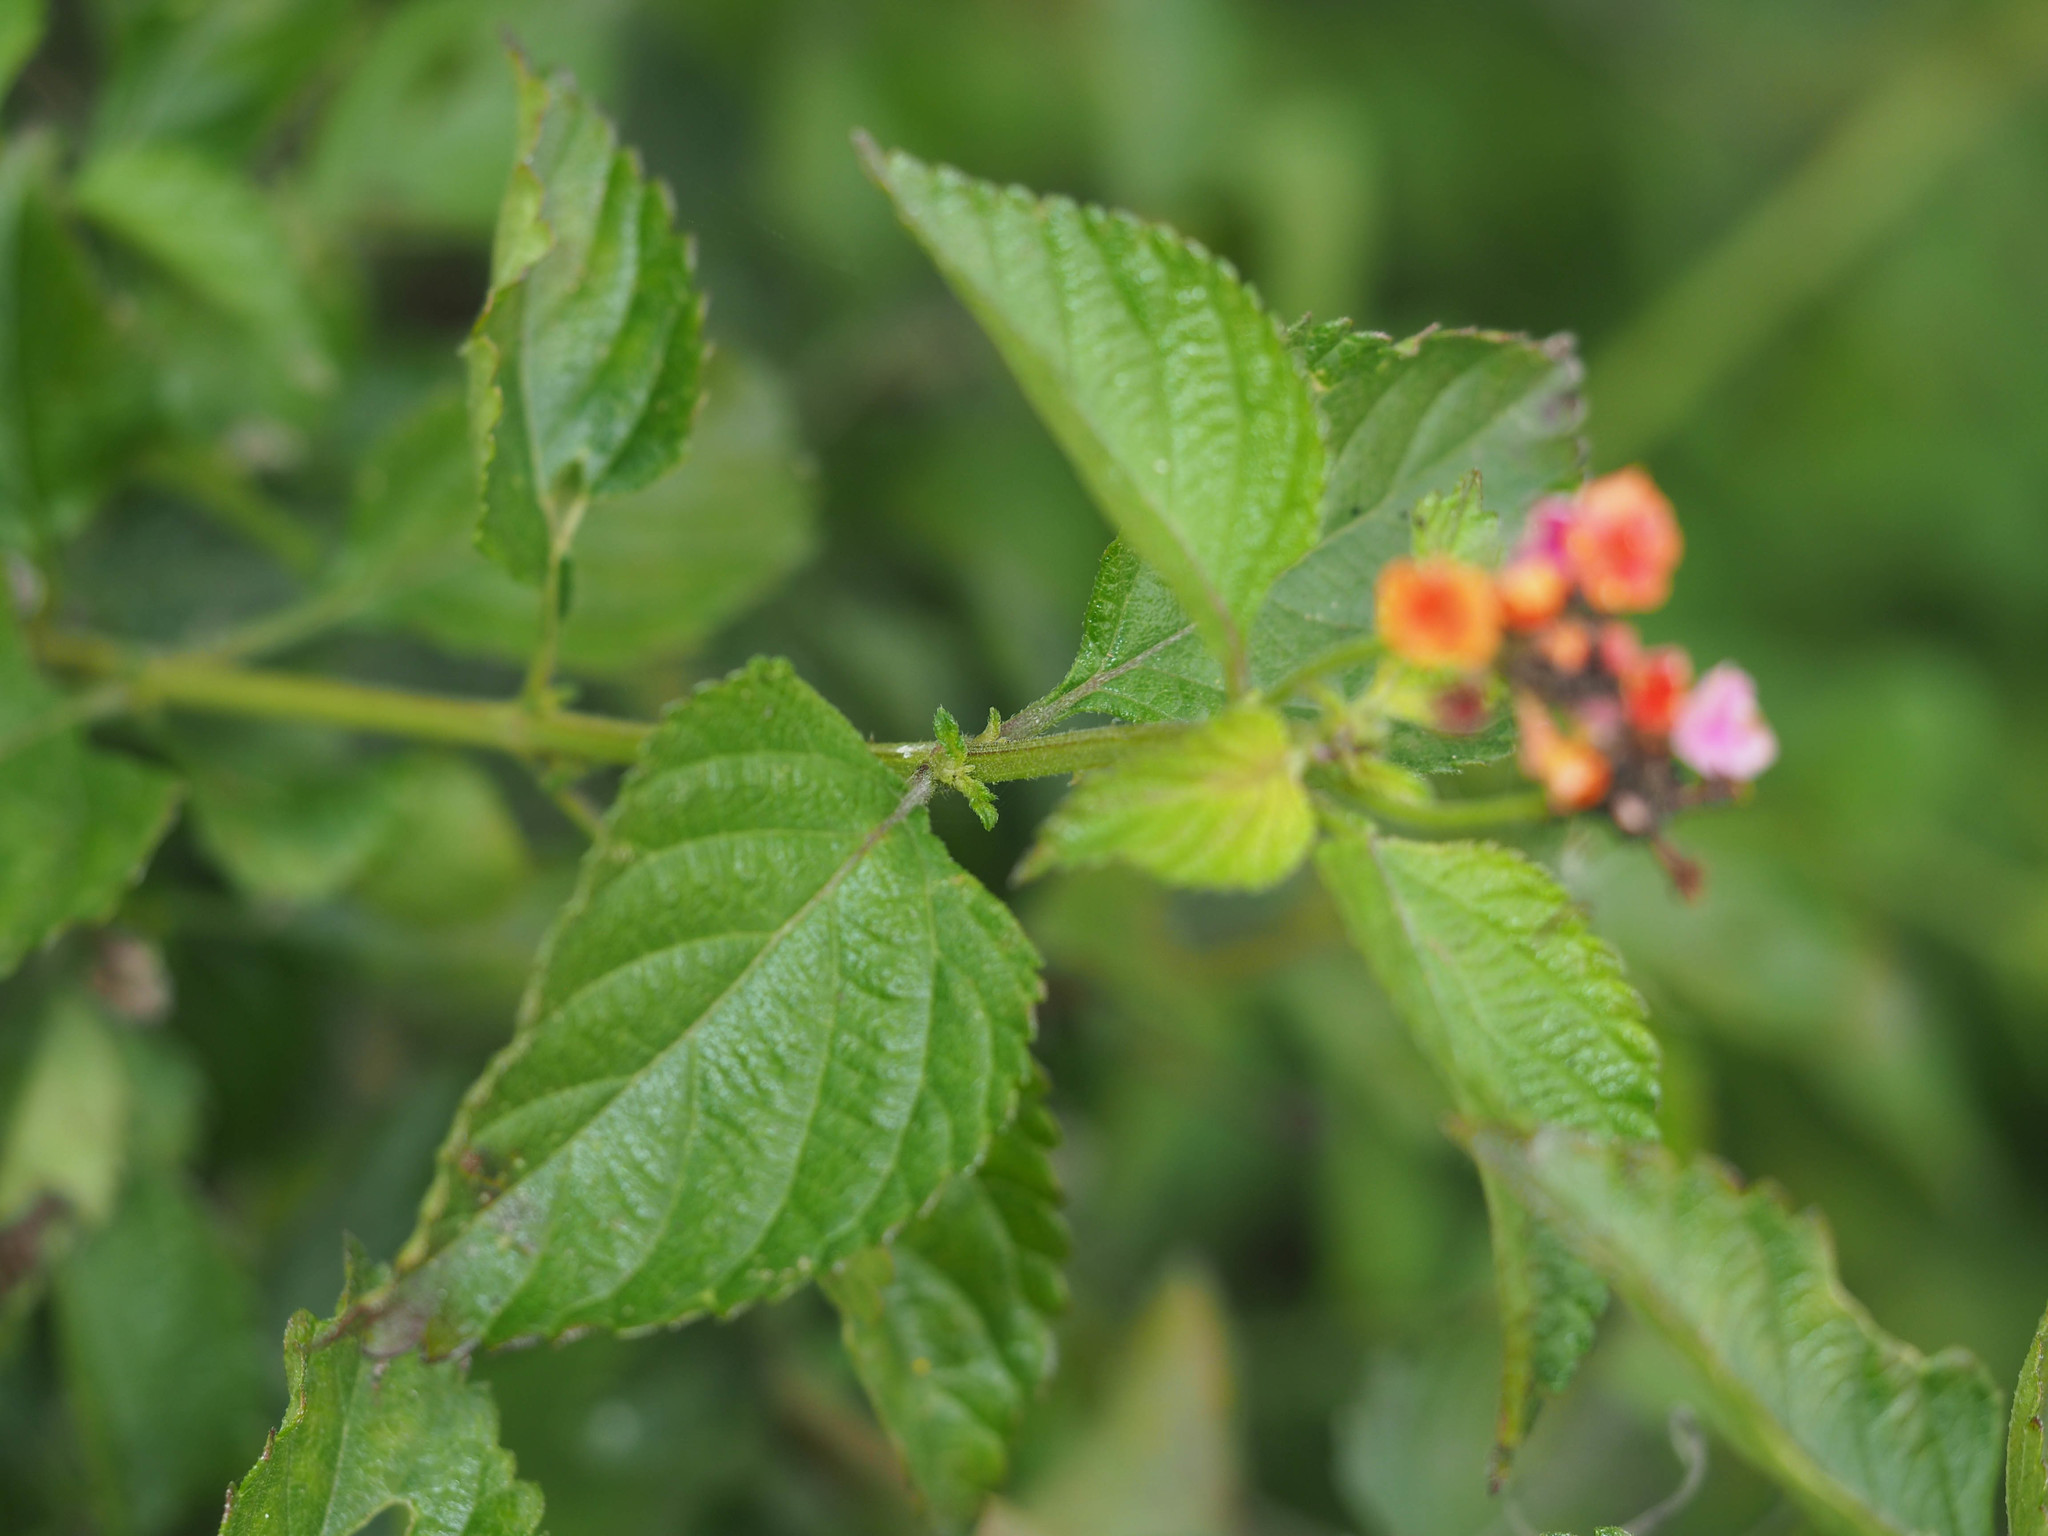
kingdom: Plantae
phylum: Tracheophyta
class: Magnoliopsida
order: Lamiales
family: Verbenaceae
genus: Lantana
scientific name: Lantana camara
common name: Lantana
